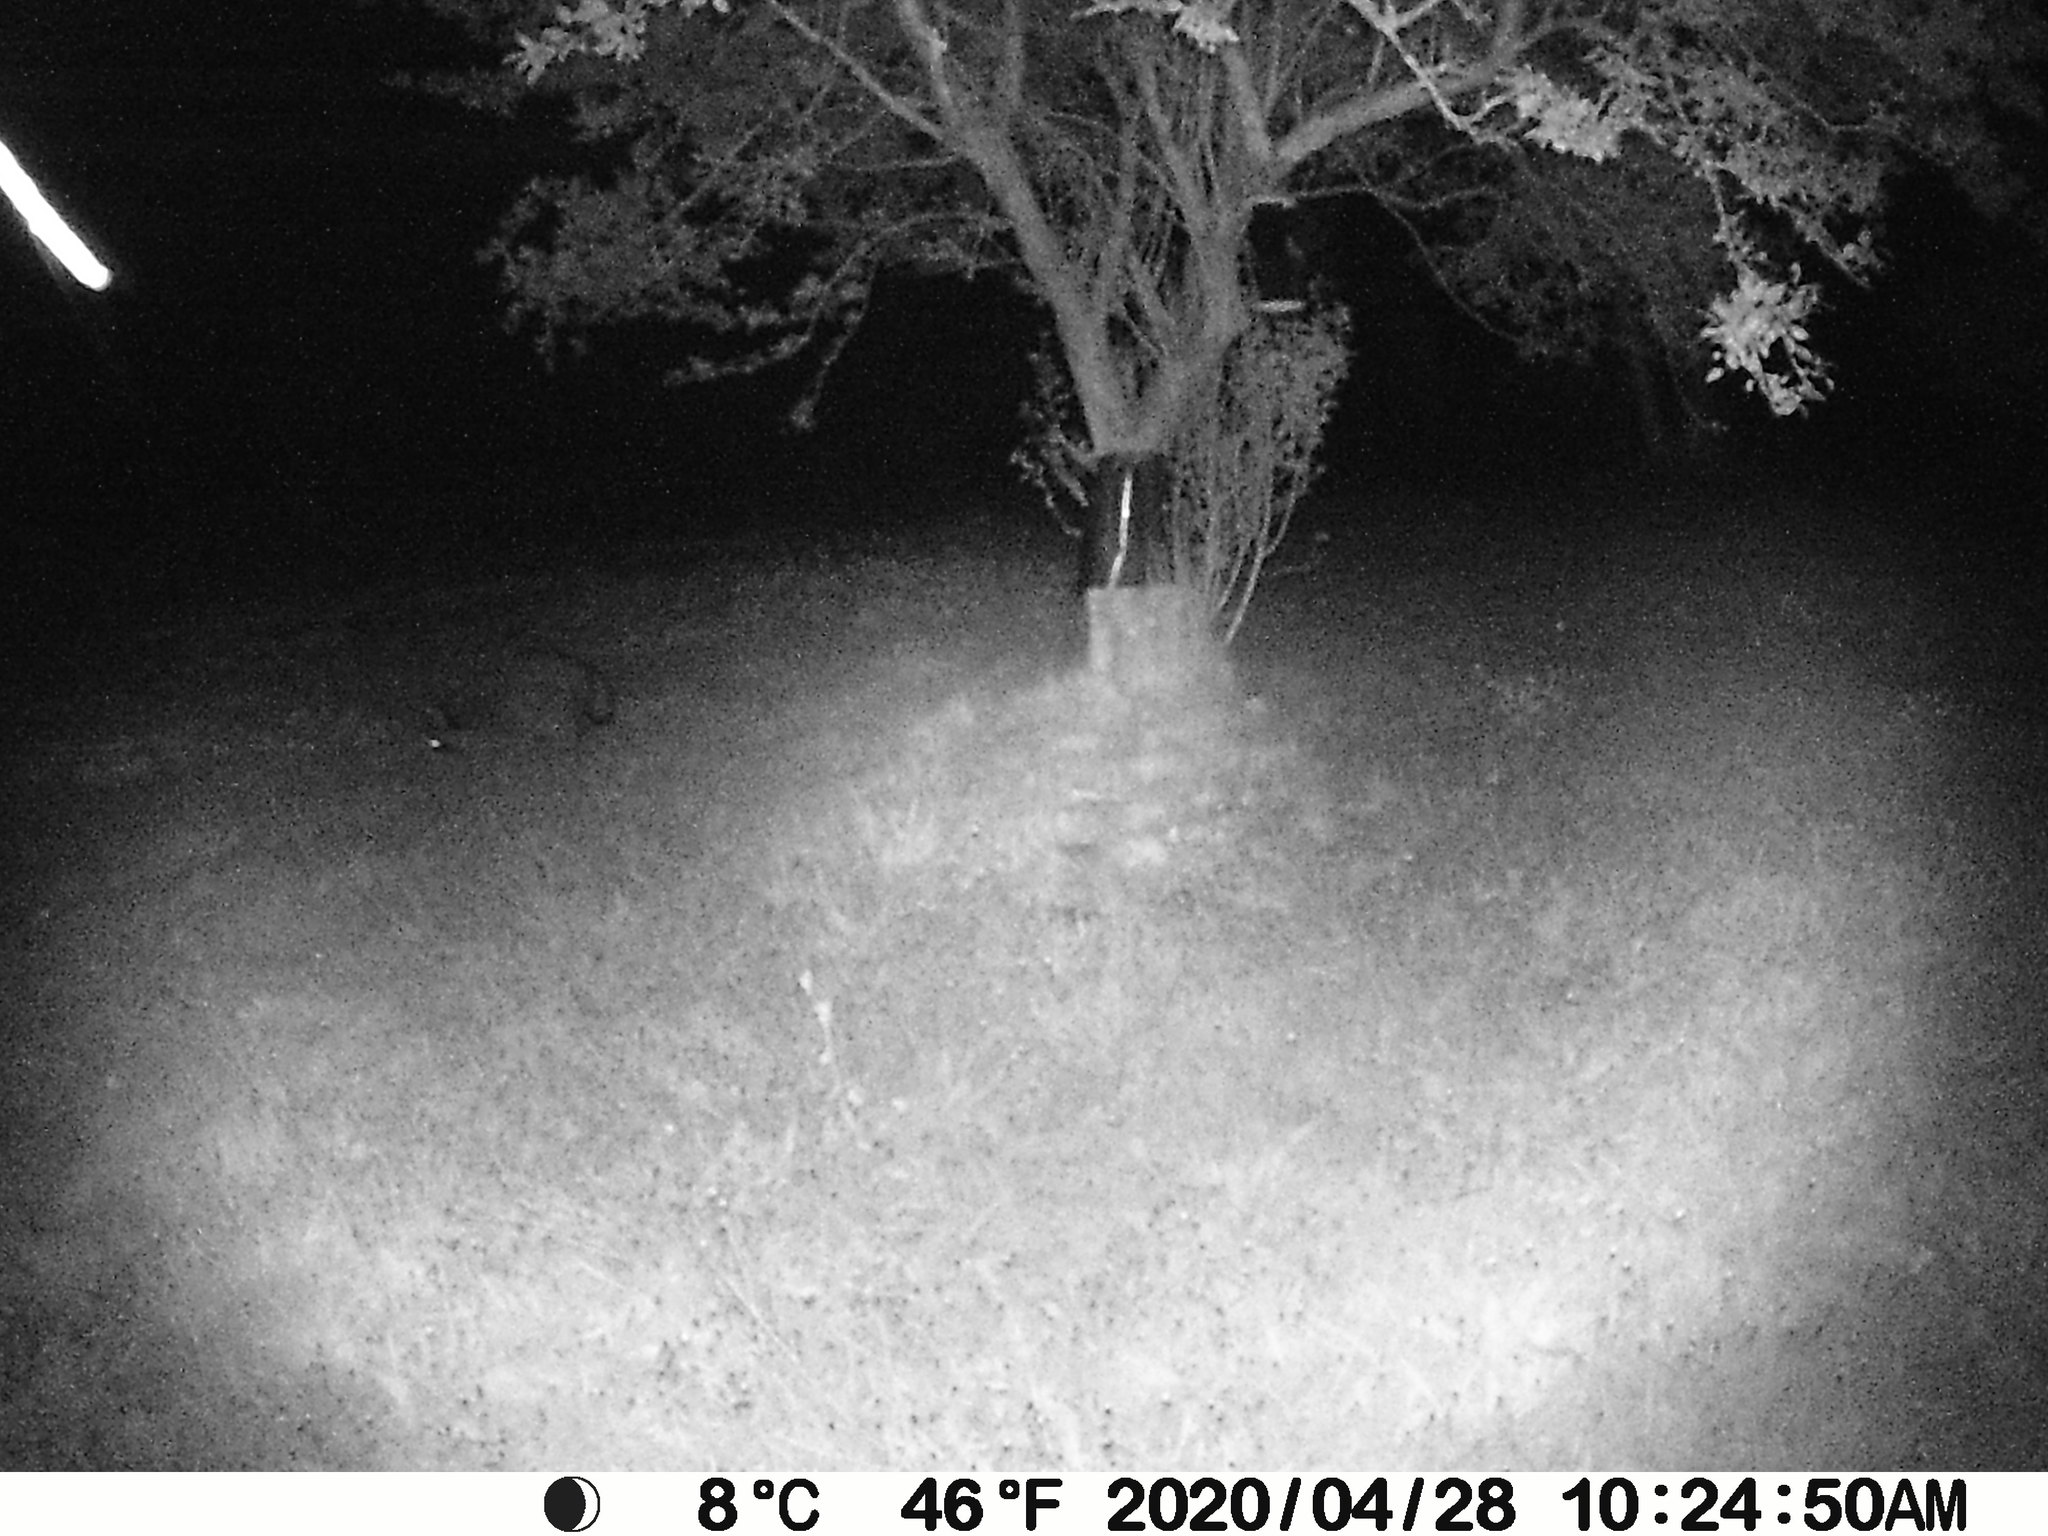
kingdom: Animalia
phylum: Chordata
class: Mammalia
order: Carnivora
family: Procyonidae
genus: Procyon
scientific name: Procyon lotor
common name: Raccoon
